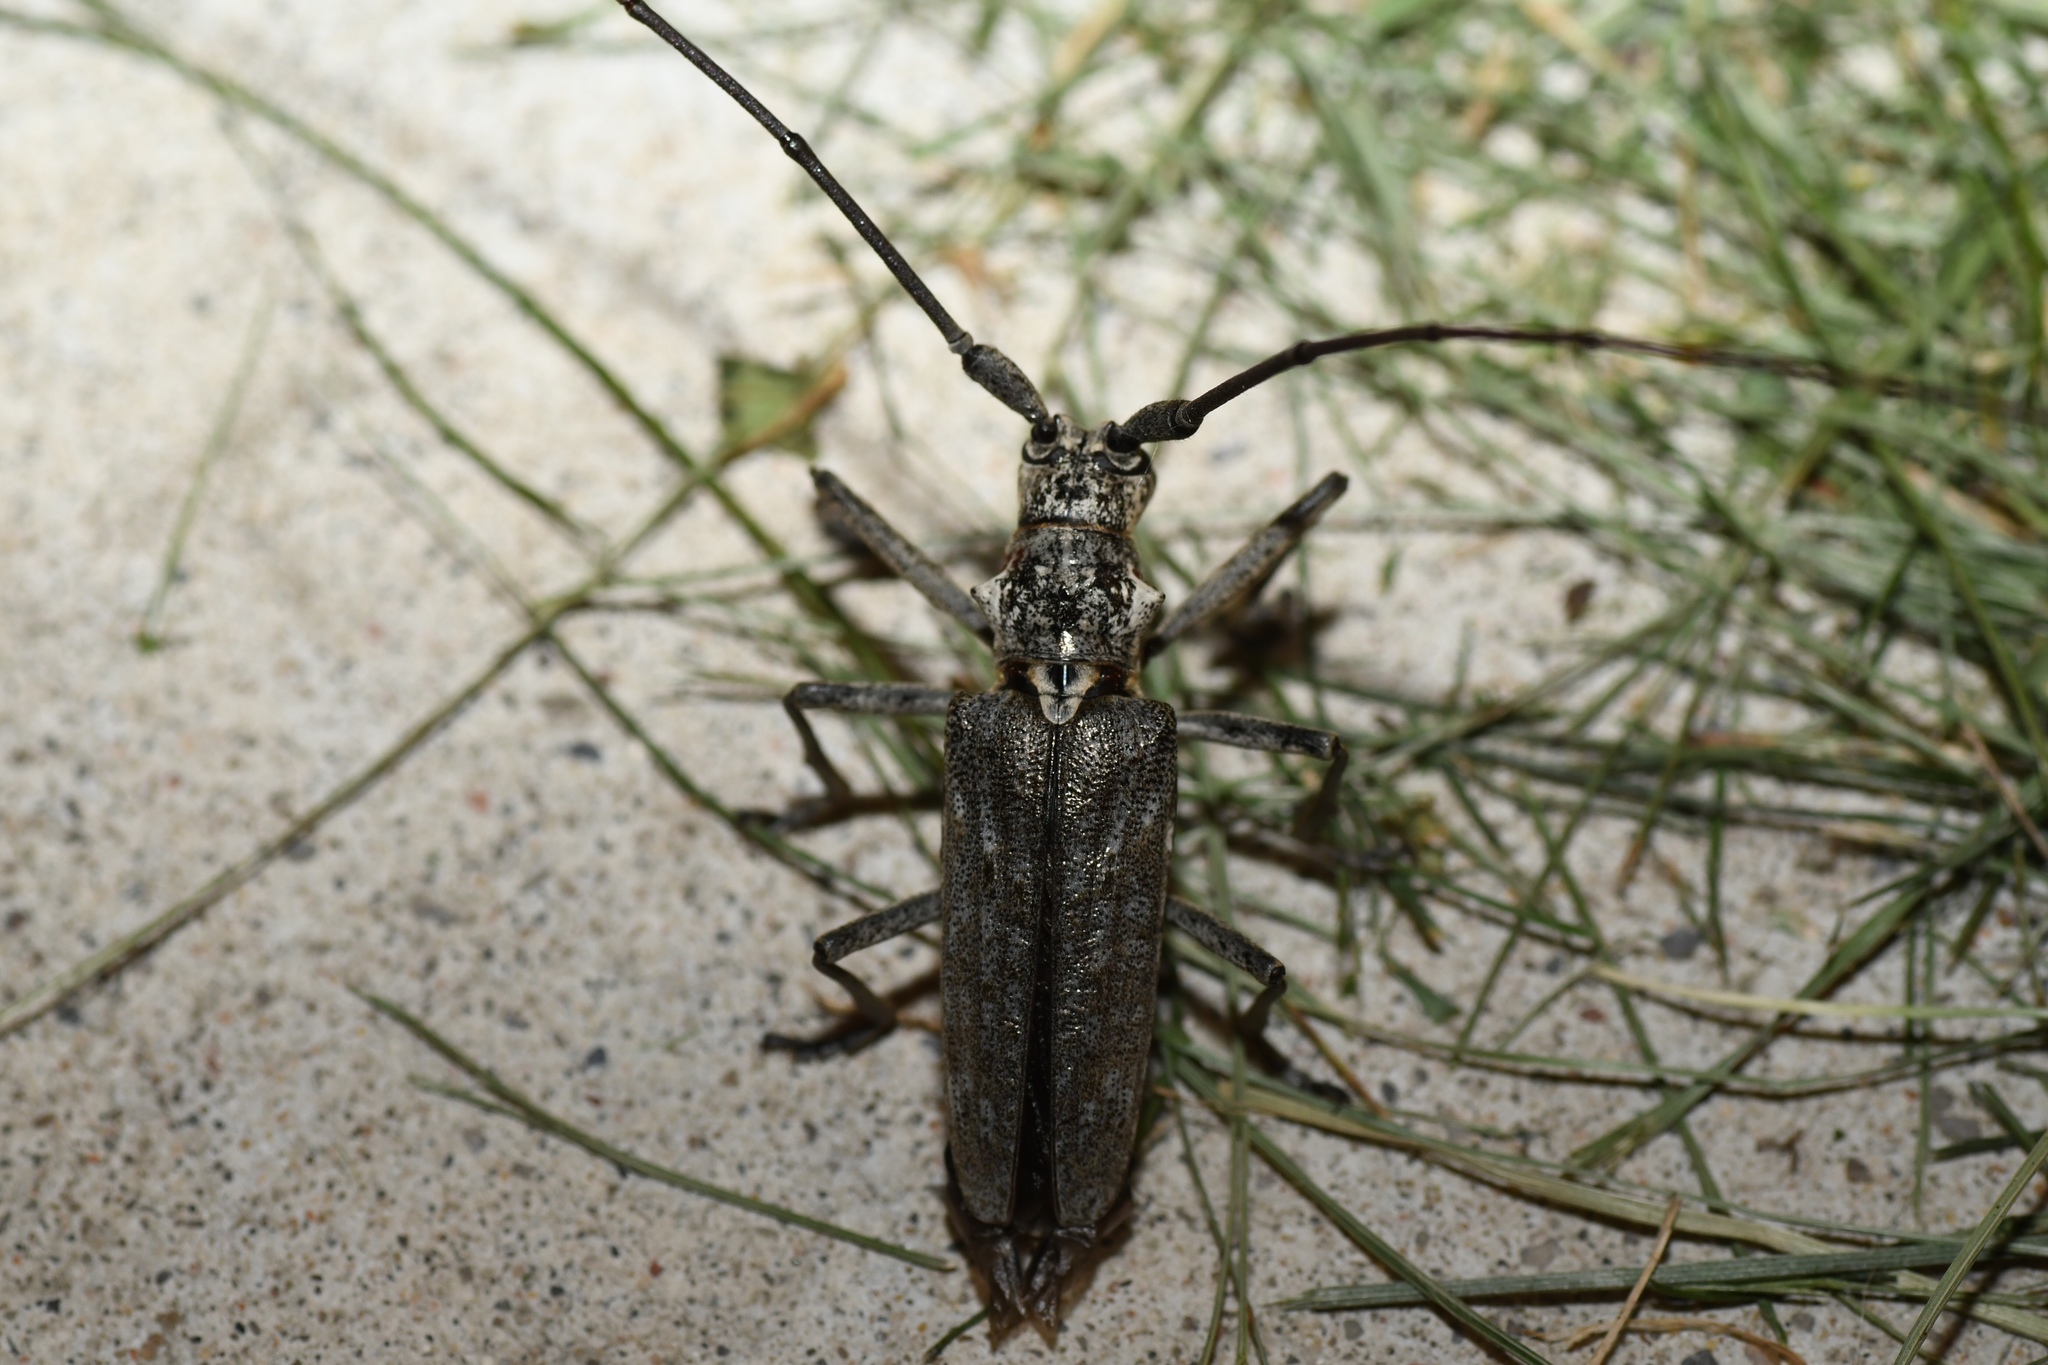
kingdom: Animalia
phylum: Arthropoda
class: Insecta
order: Coleoptera
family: Cerambycidae
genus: Monochamus
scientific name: Monochamus notatus
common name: Northeastern pine sawyer beetle
